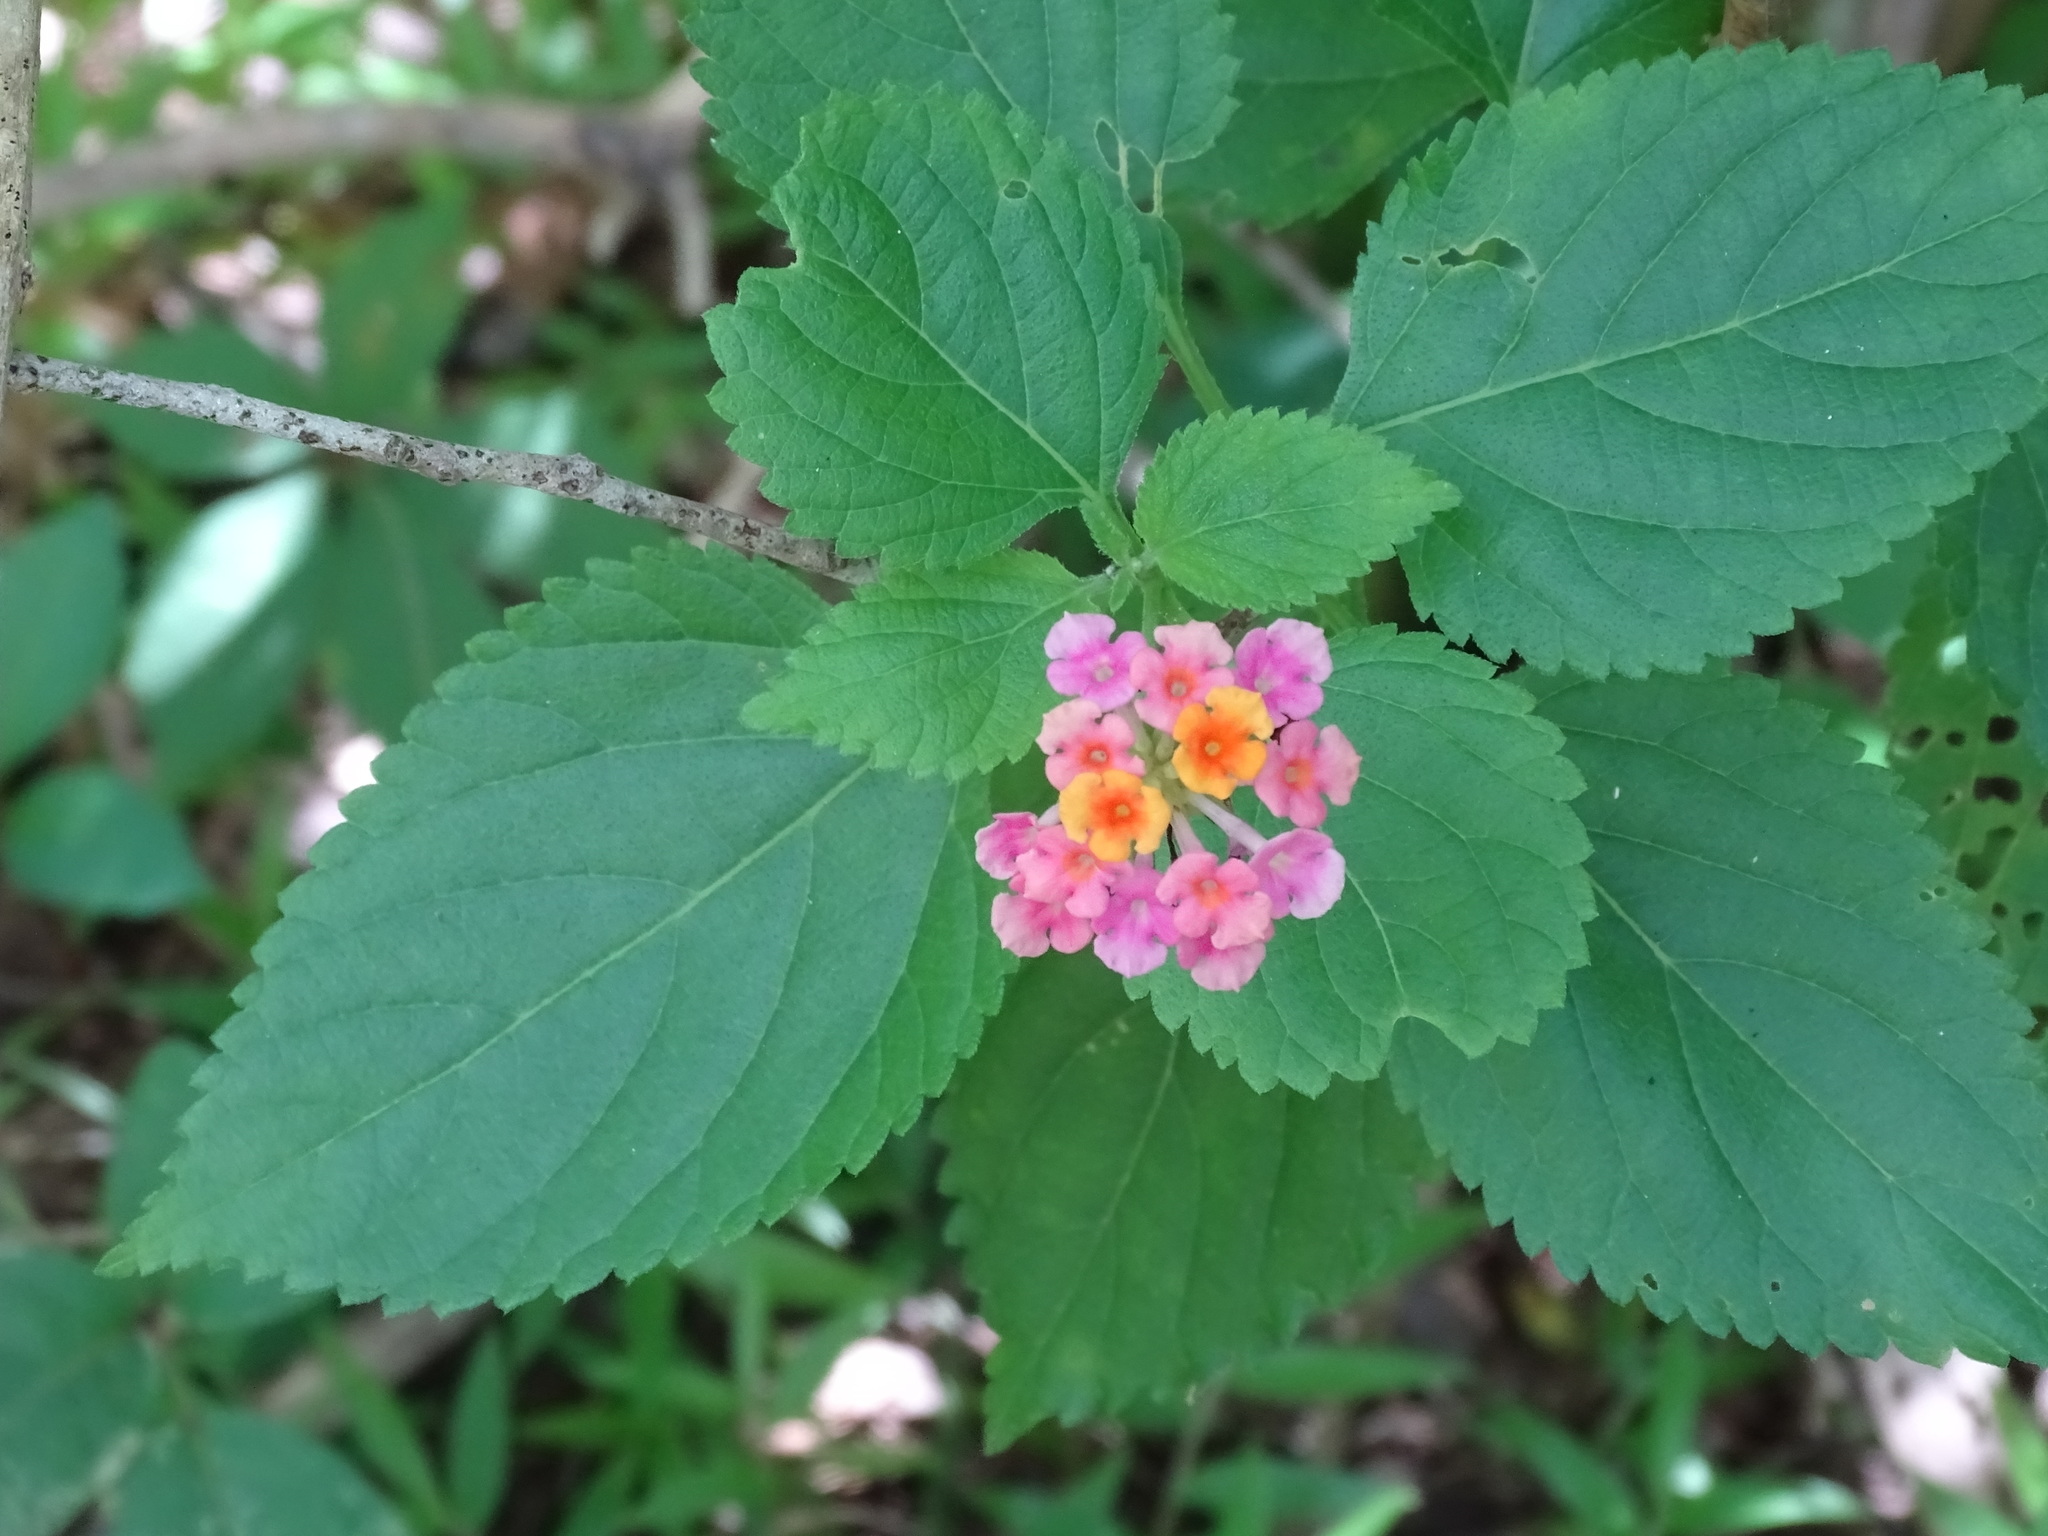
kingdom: Plantae
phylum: Tracheophyta
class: Magnoliopsida
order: Lamiales
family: Verbenaceae
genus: Lantana
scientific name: Lantana camara
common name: Lantana
